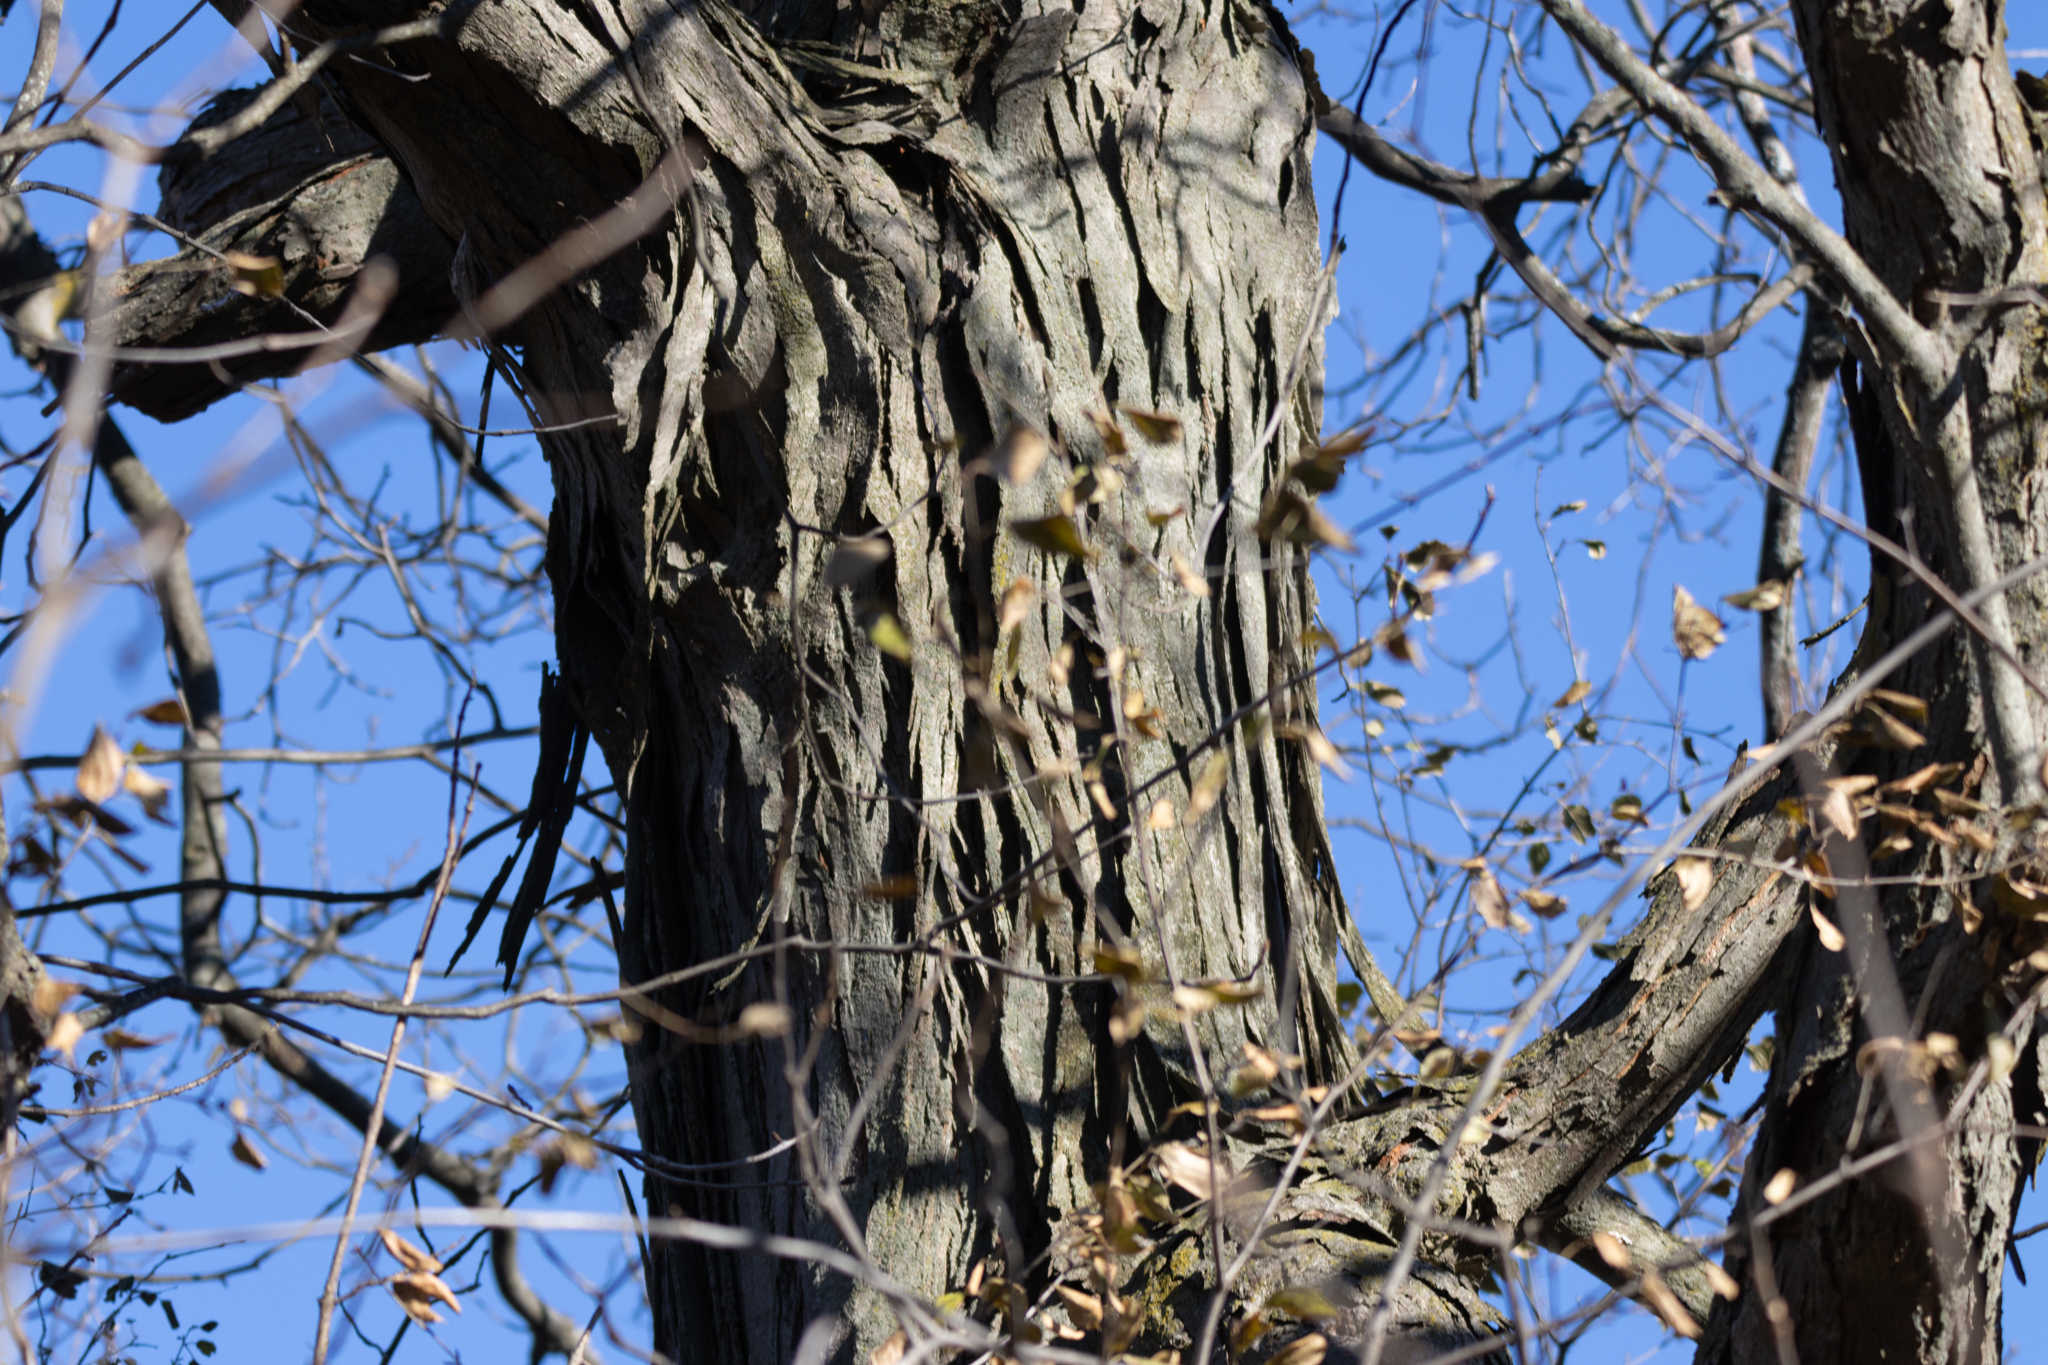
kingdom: Plantae
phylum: Tracheophyta
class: Magnoliopsida
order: Fagales
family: Juglandaceae
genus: Carya
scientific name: Carya ovata
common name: Shagbark hickory
